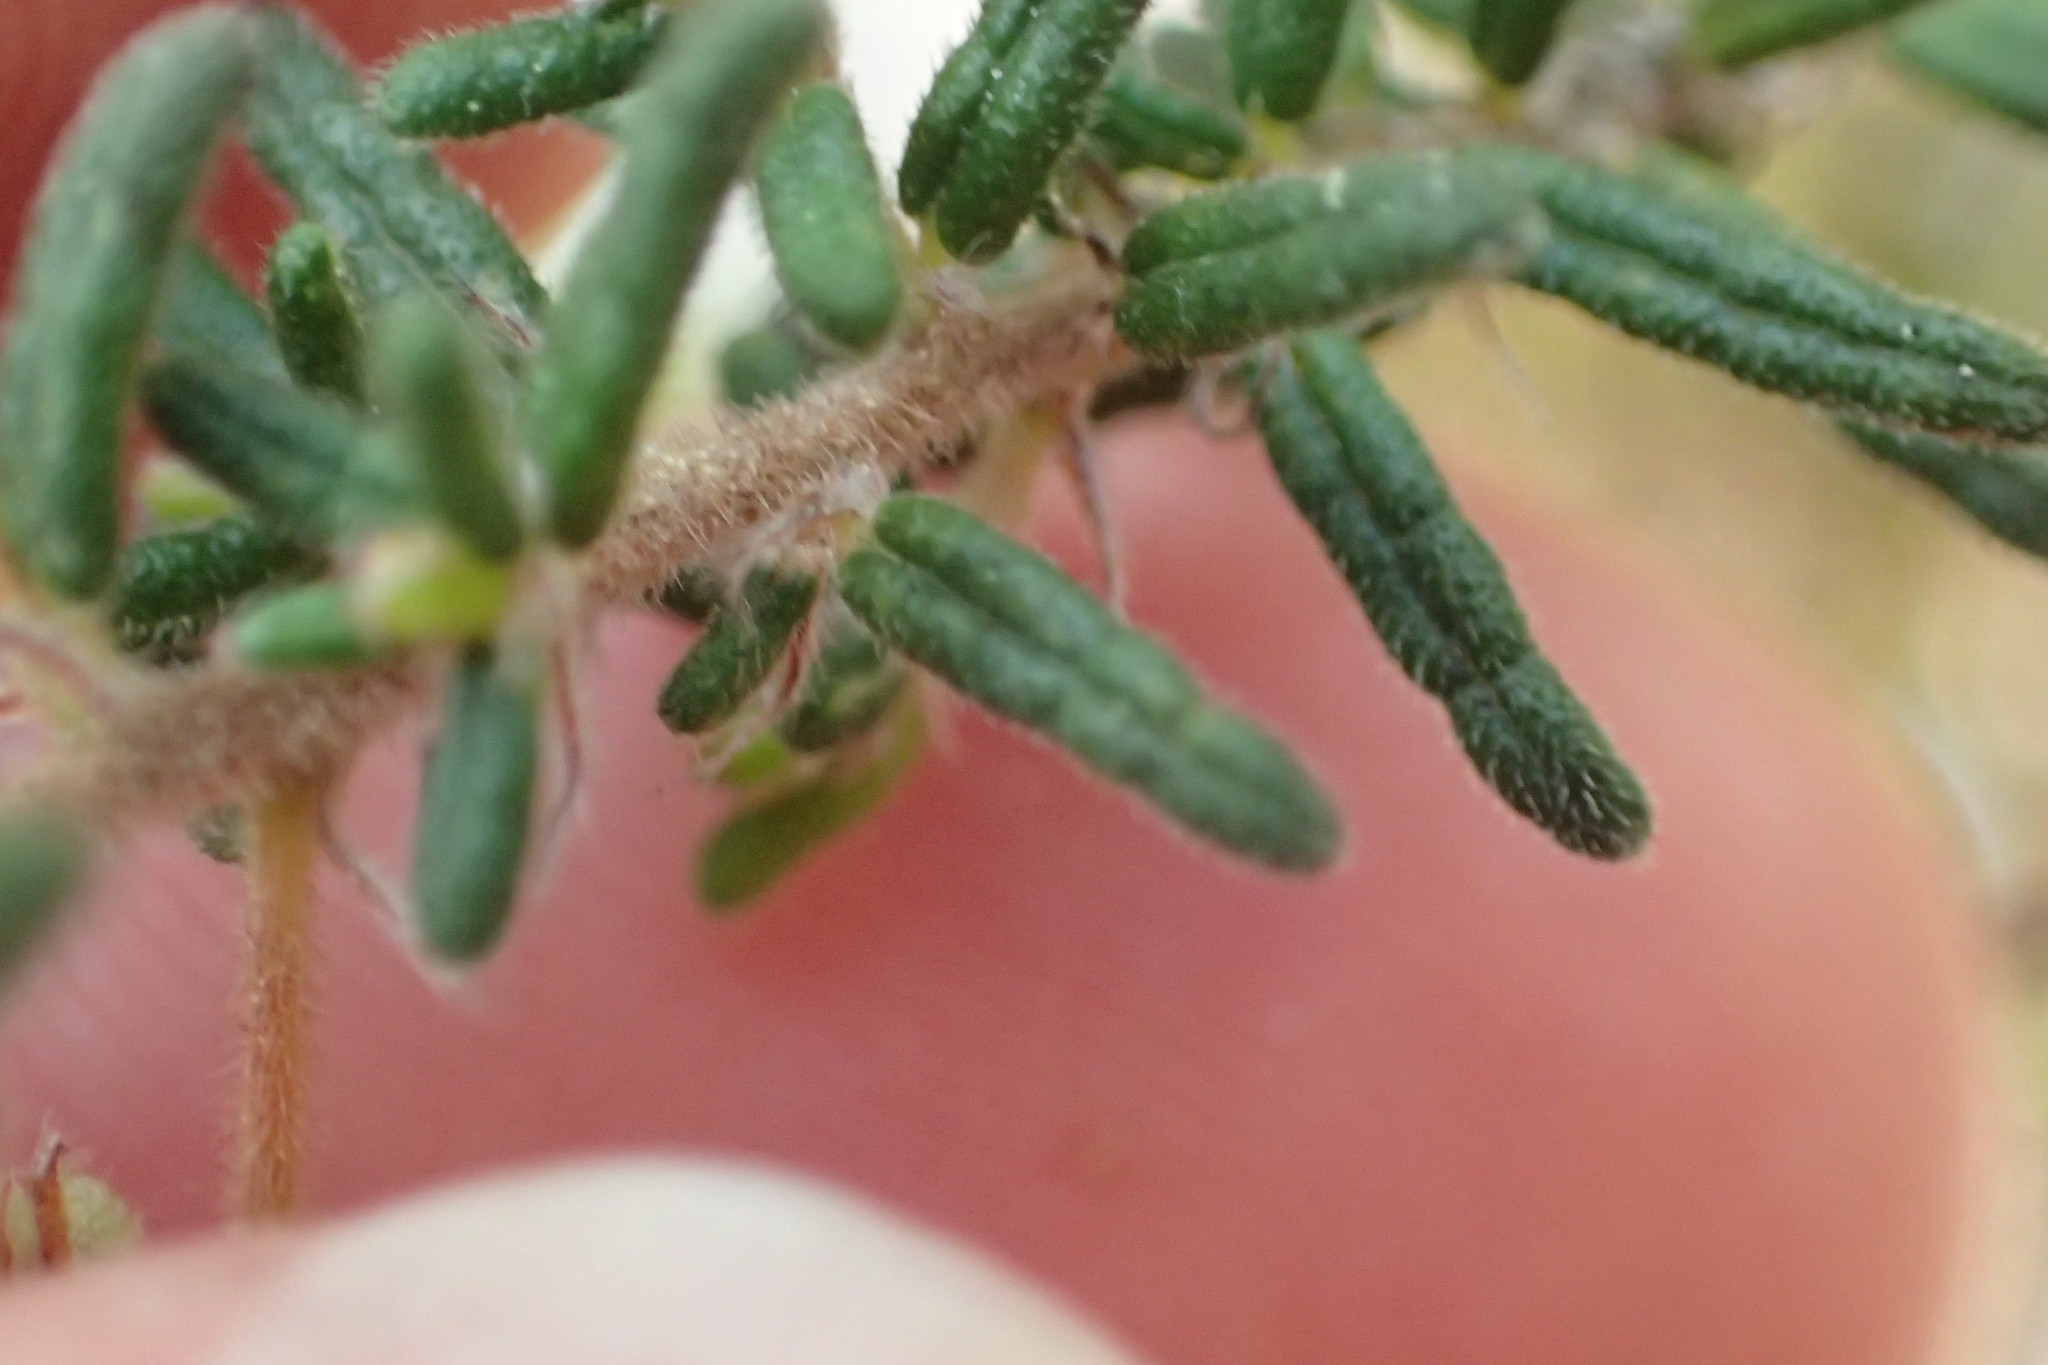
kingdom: Plantae
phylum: Tracheophyta
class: Magnoliopsida
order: Rosales
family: Rhamnaceae
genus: Pomaderris
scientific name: Pomaderris amoena
